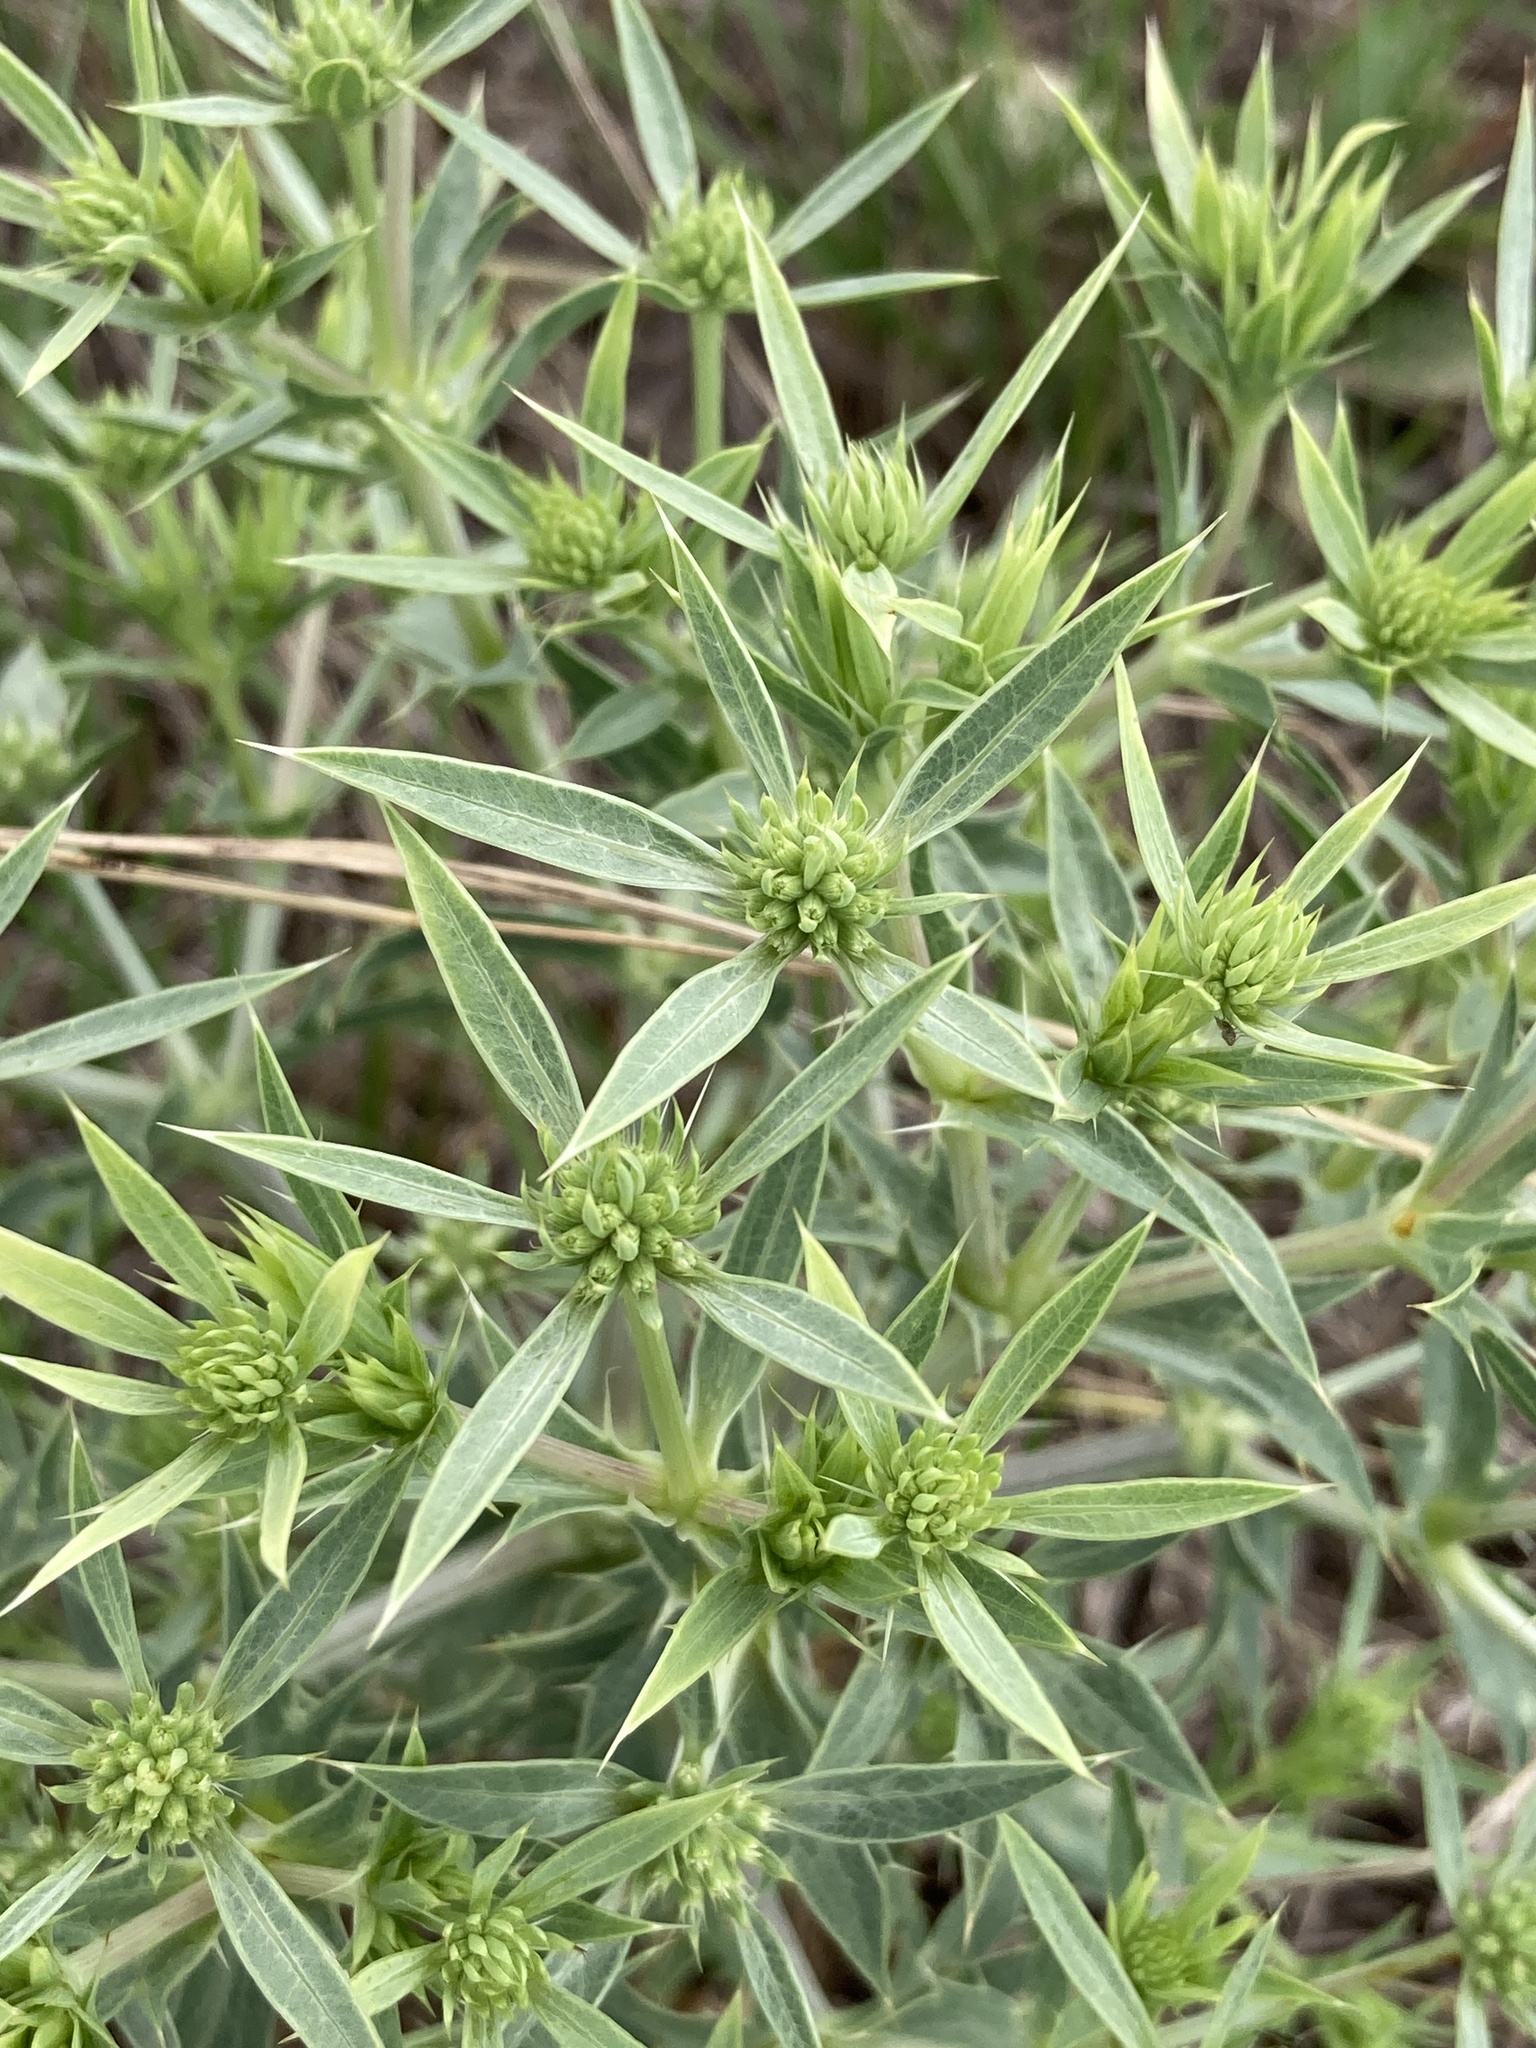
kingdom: Plantae
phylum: Tracheophyta
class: Magnoliopsida
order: Apiales
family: Apiaceae
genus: Eryngium
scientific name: Eryngium campestre
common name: Field eryngo
